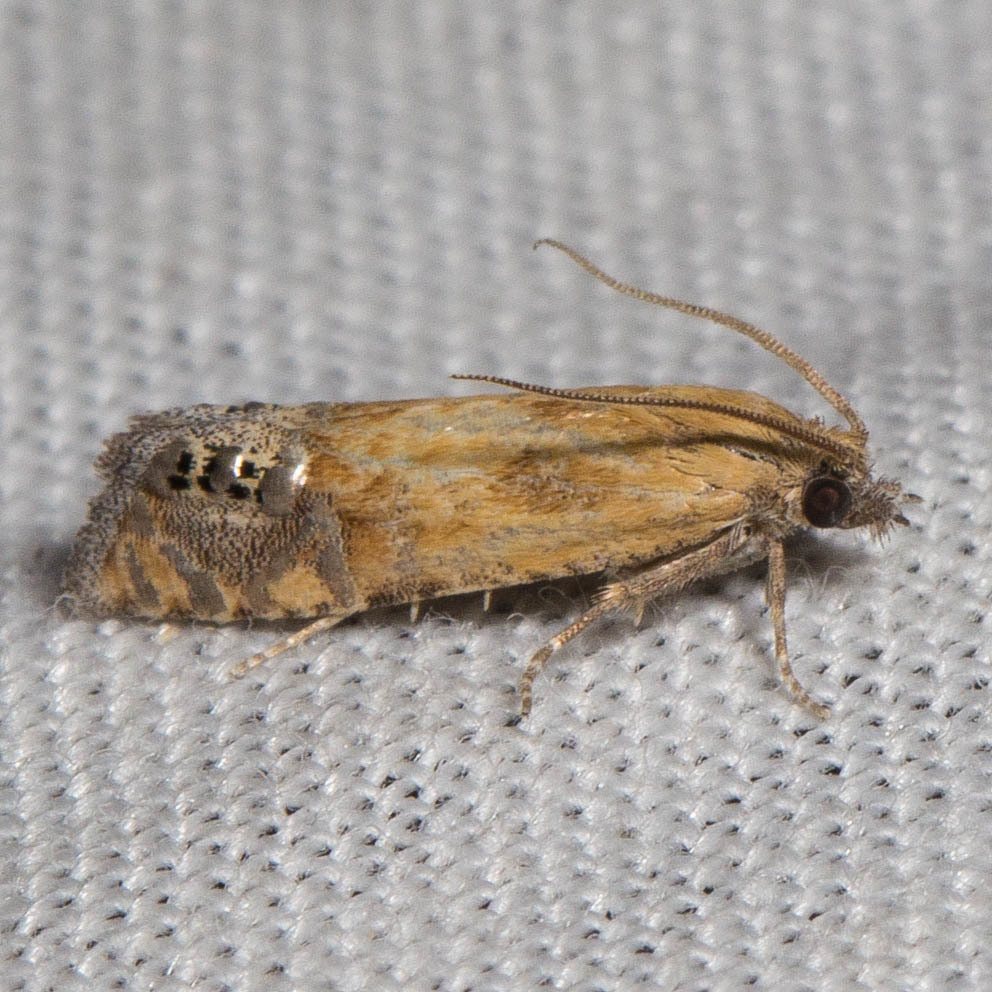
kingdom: Animalia
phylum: Arthropoda
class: Insecta
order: Lepidoptera
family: Tortricidae
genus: Pelochrista
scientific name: Pelochrista scintillana
